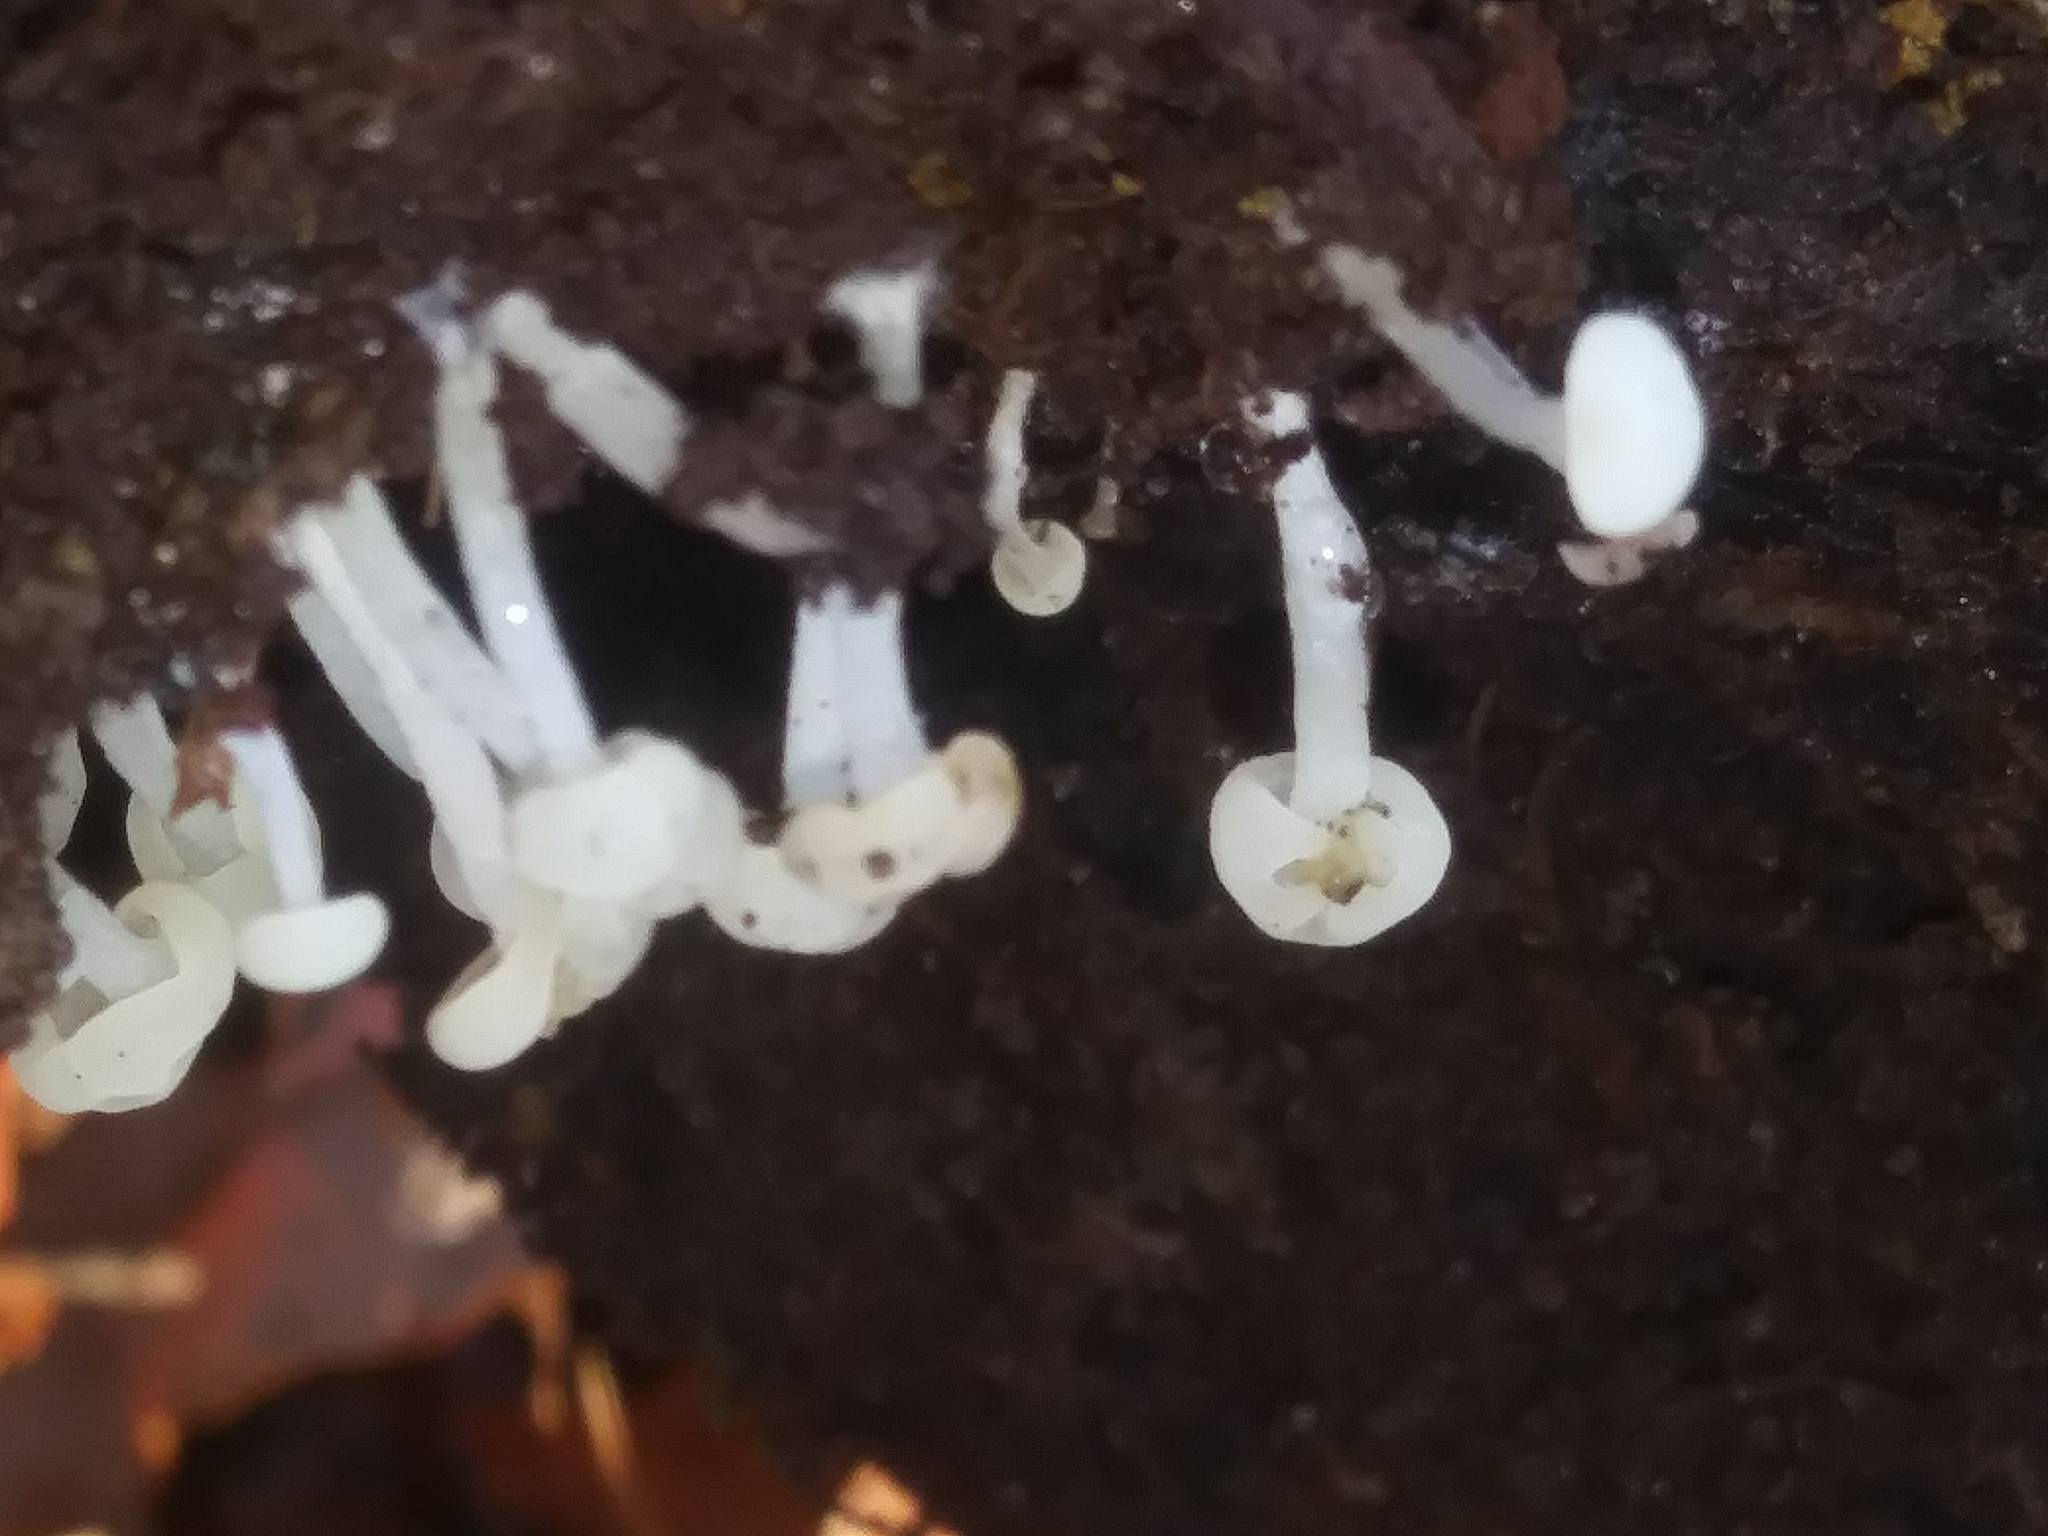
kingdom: Fungi
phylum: Ascomycota
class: Leotiomycetes
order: Helotiales
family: Tricladiaceae
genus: Cudoniella
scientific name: Cudoniella acicularis
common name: Oak pin
